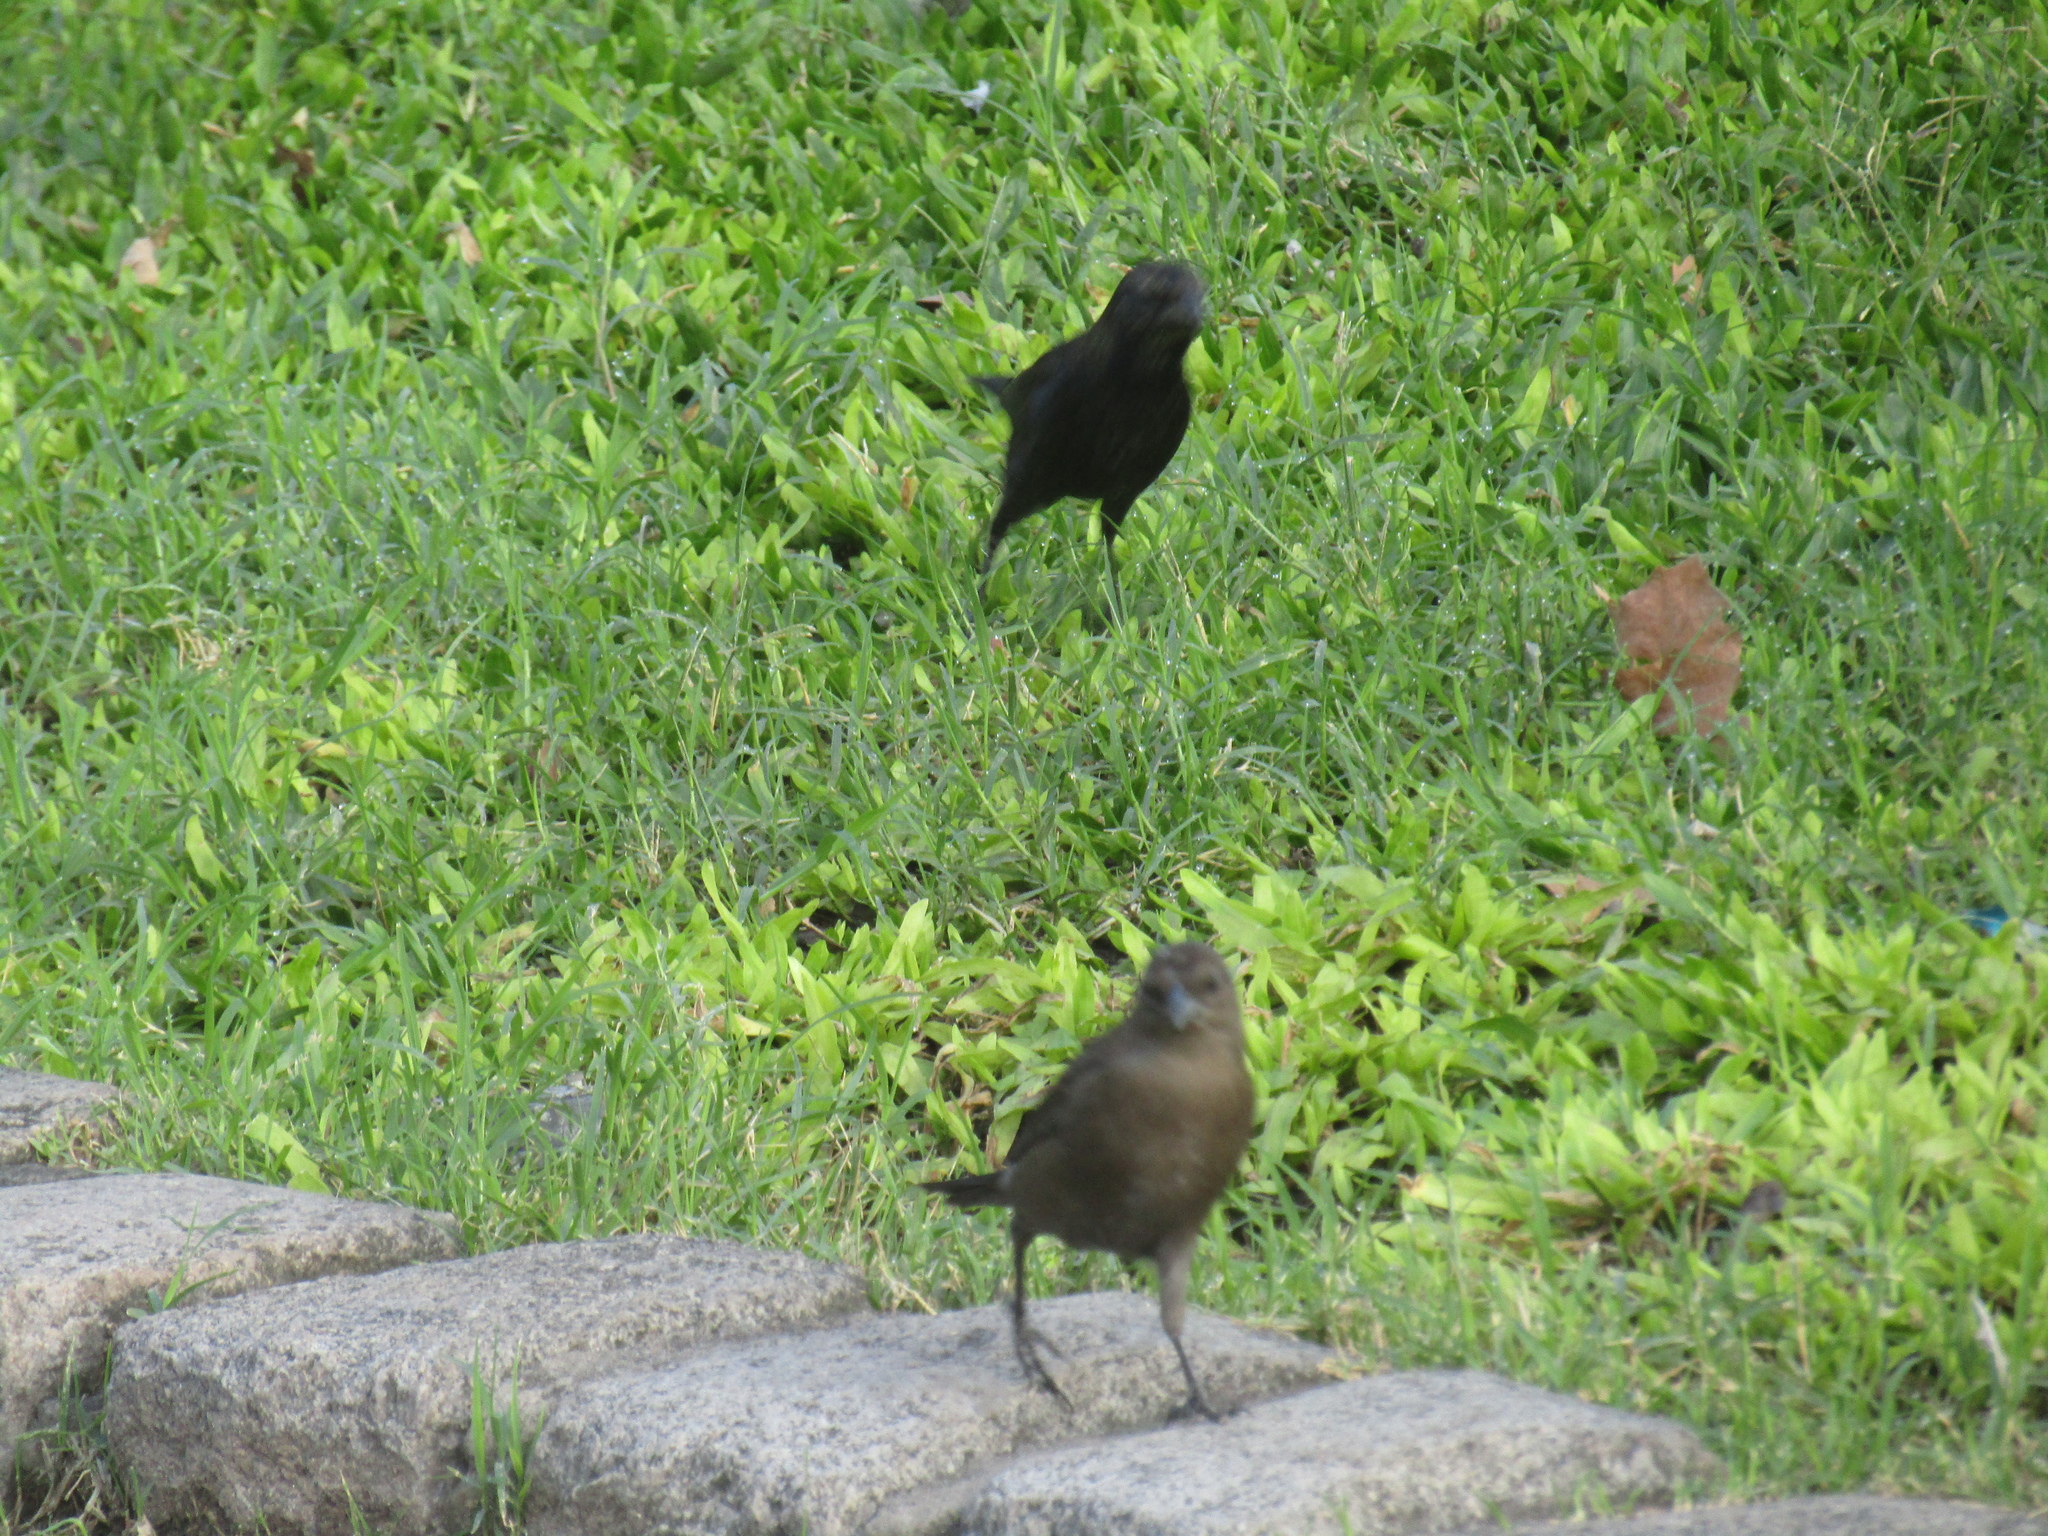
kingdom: Animalia
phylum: Chordata
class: Aves
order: Passeriformes
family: Icteridae
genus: Molothrus
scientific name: Molothrus bonariensis
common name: Shiny cowbird
